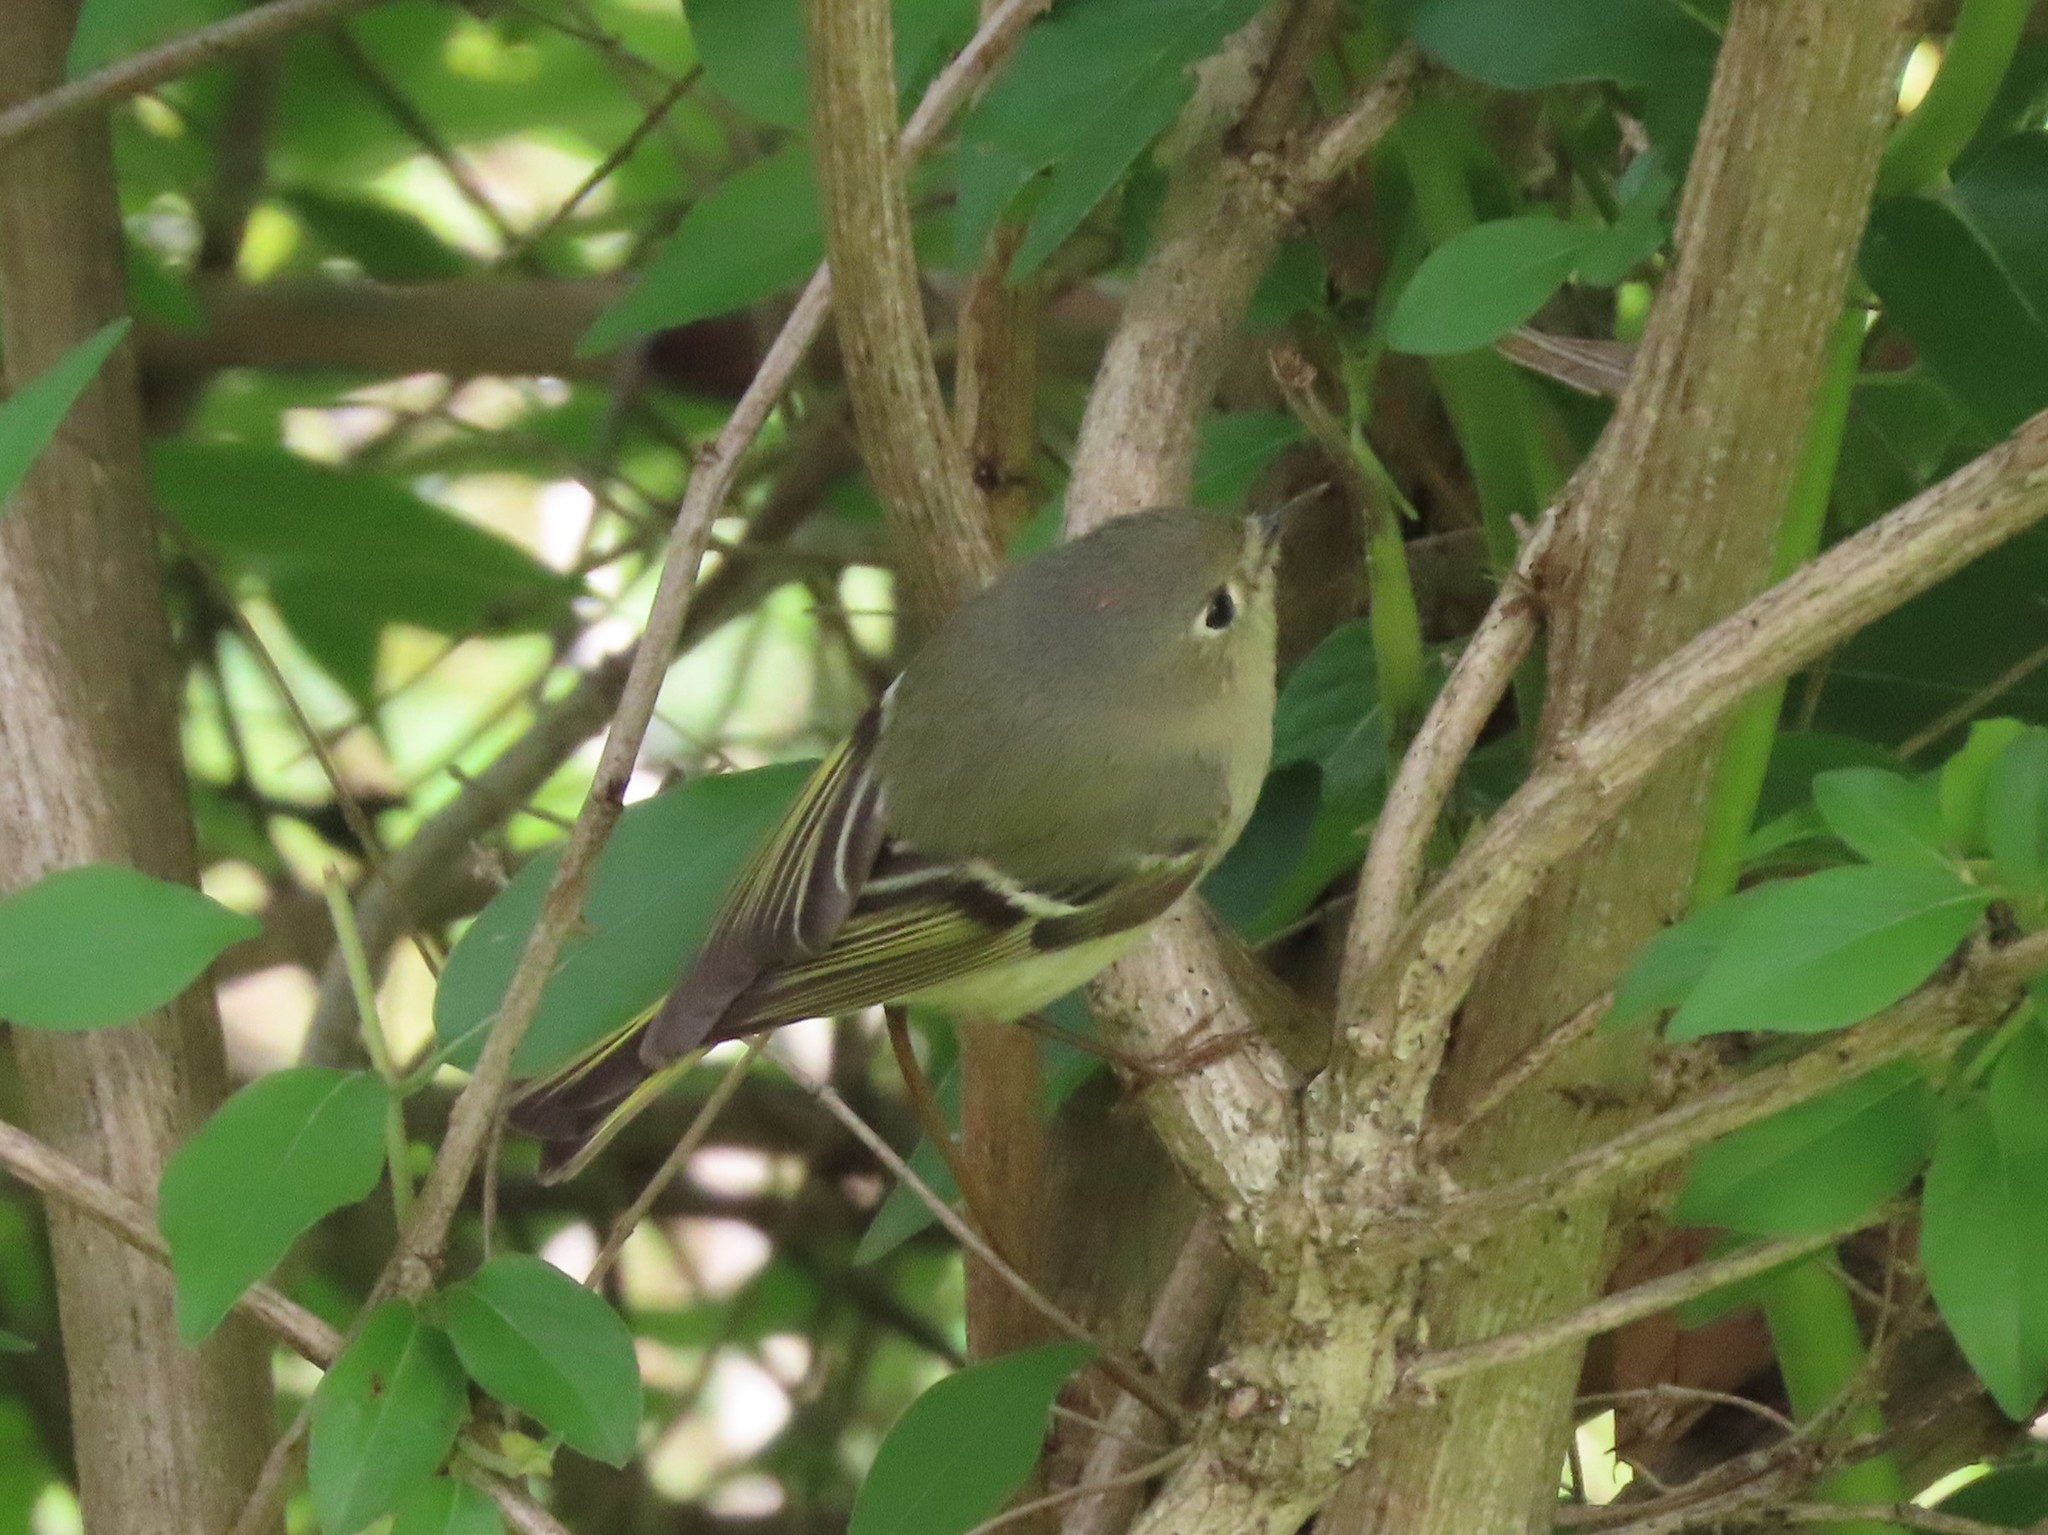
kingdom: Animalia
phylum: Chordata
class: Aves
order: Passeriformes
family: Regulidae
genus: Regulus
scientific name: Regulus calendula
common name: Ruby-crowned kinglet
